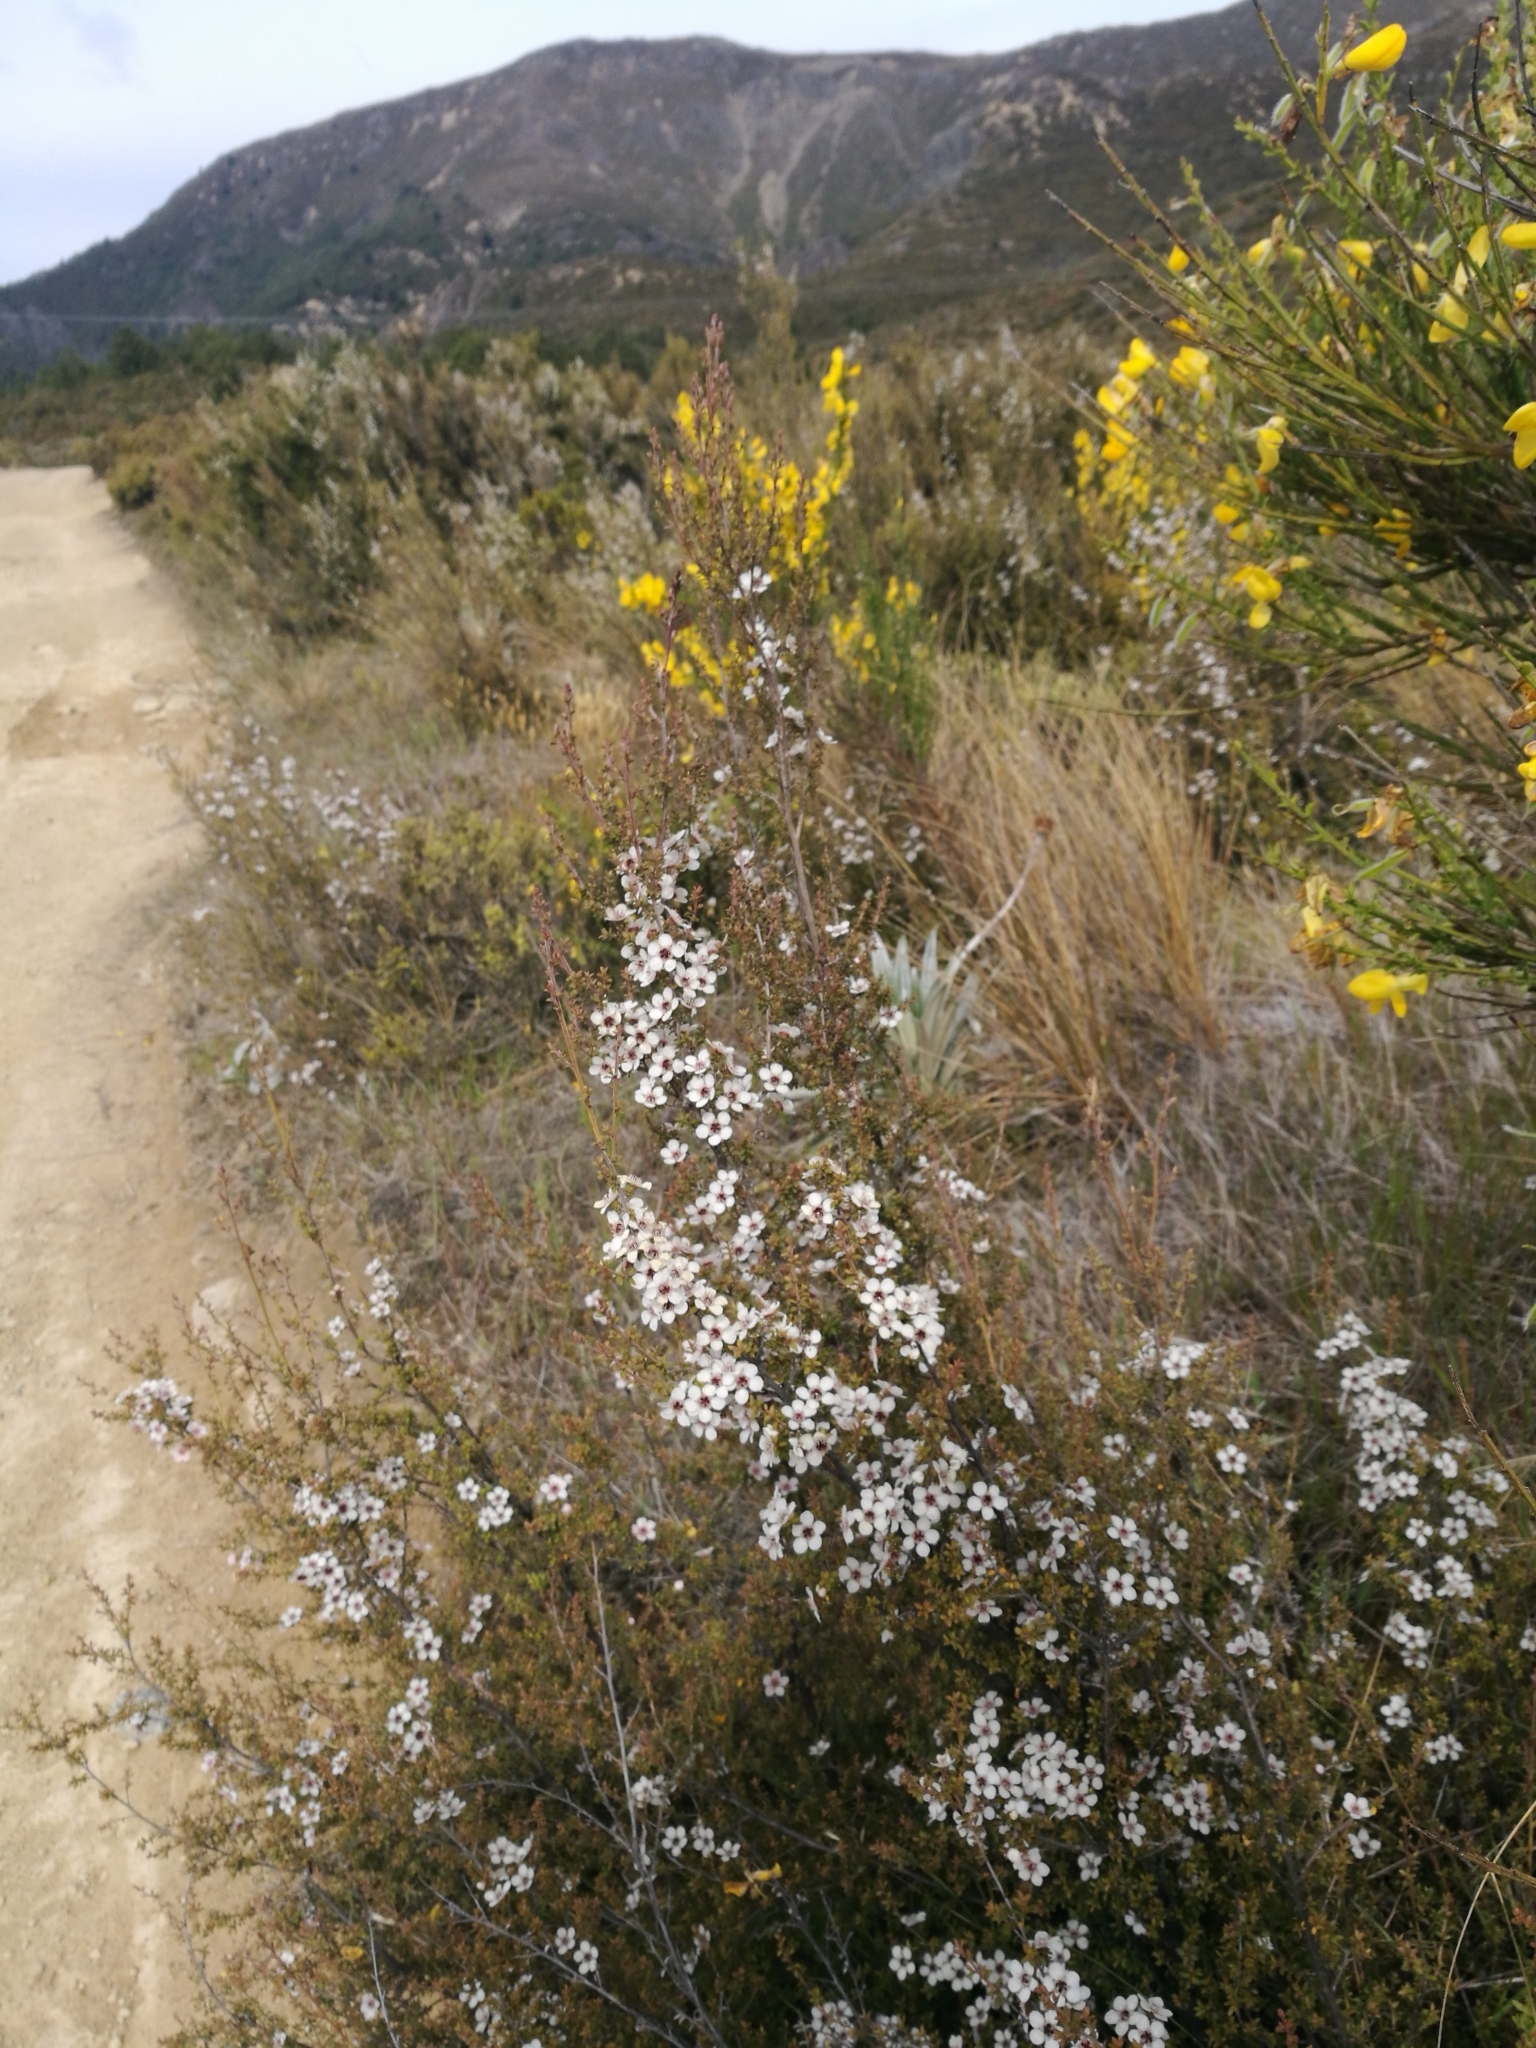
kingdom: Plantae
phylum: Tracheophyta
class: Magnoliopsida
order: Myrtales
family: Myrtaceae
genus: Leptospermum
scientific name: Leptospermum scoparium
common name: Broom tea-tree
